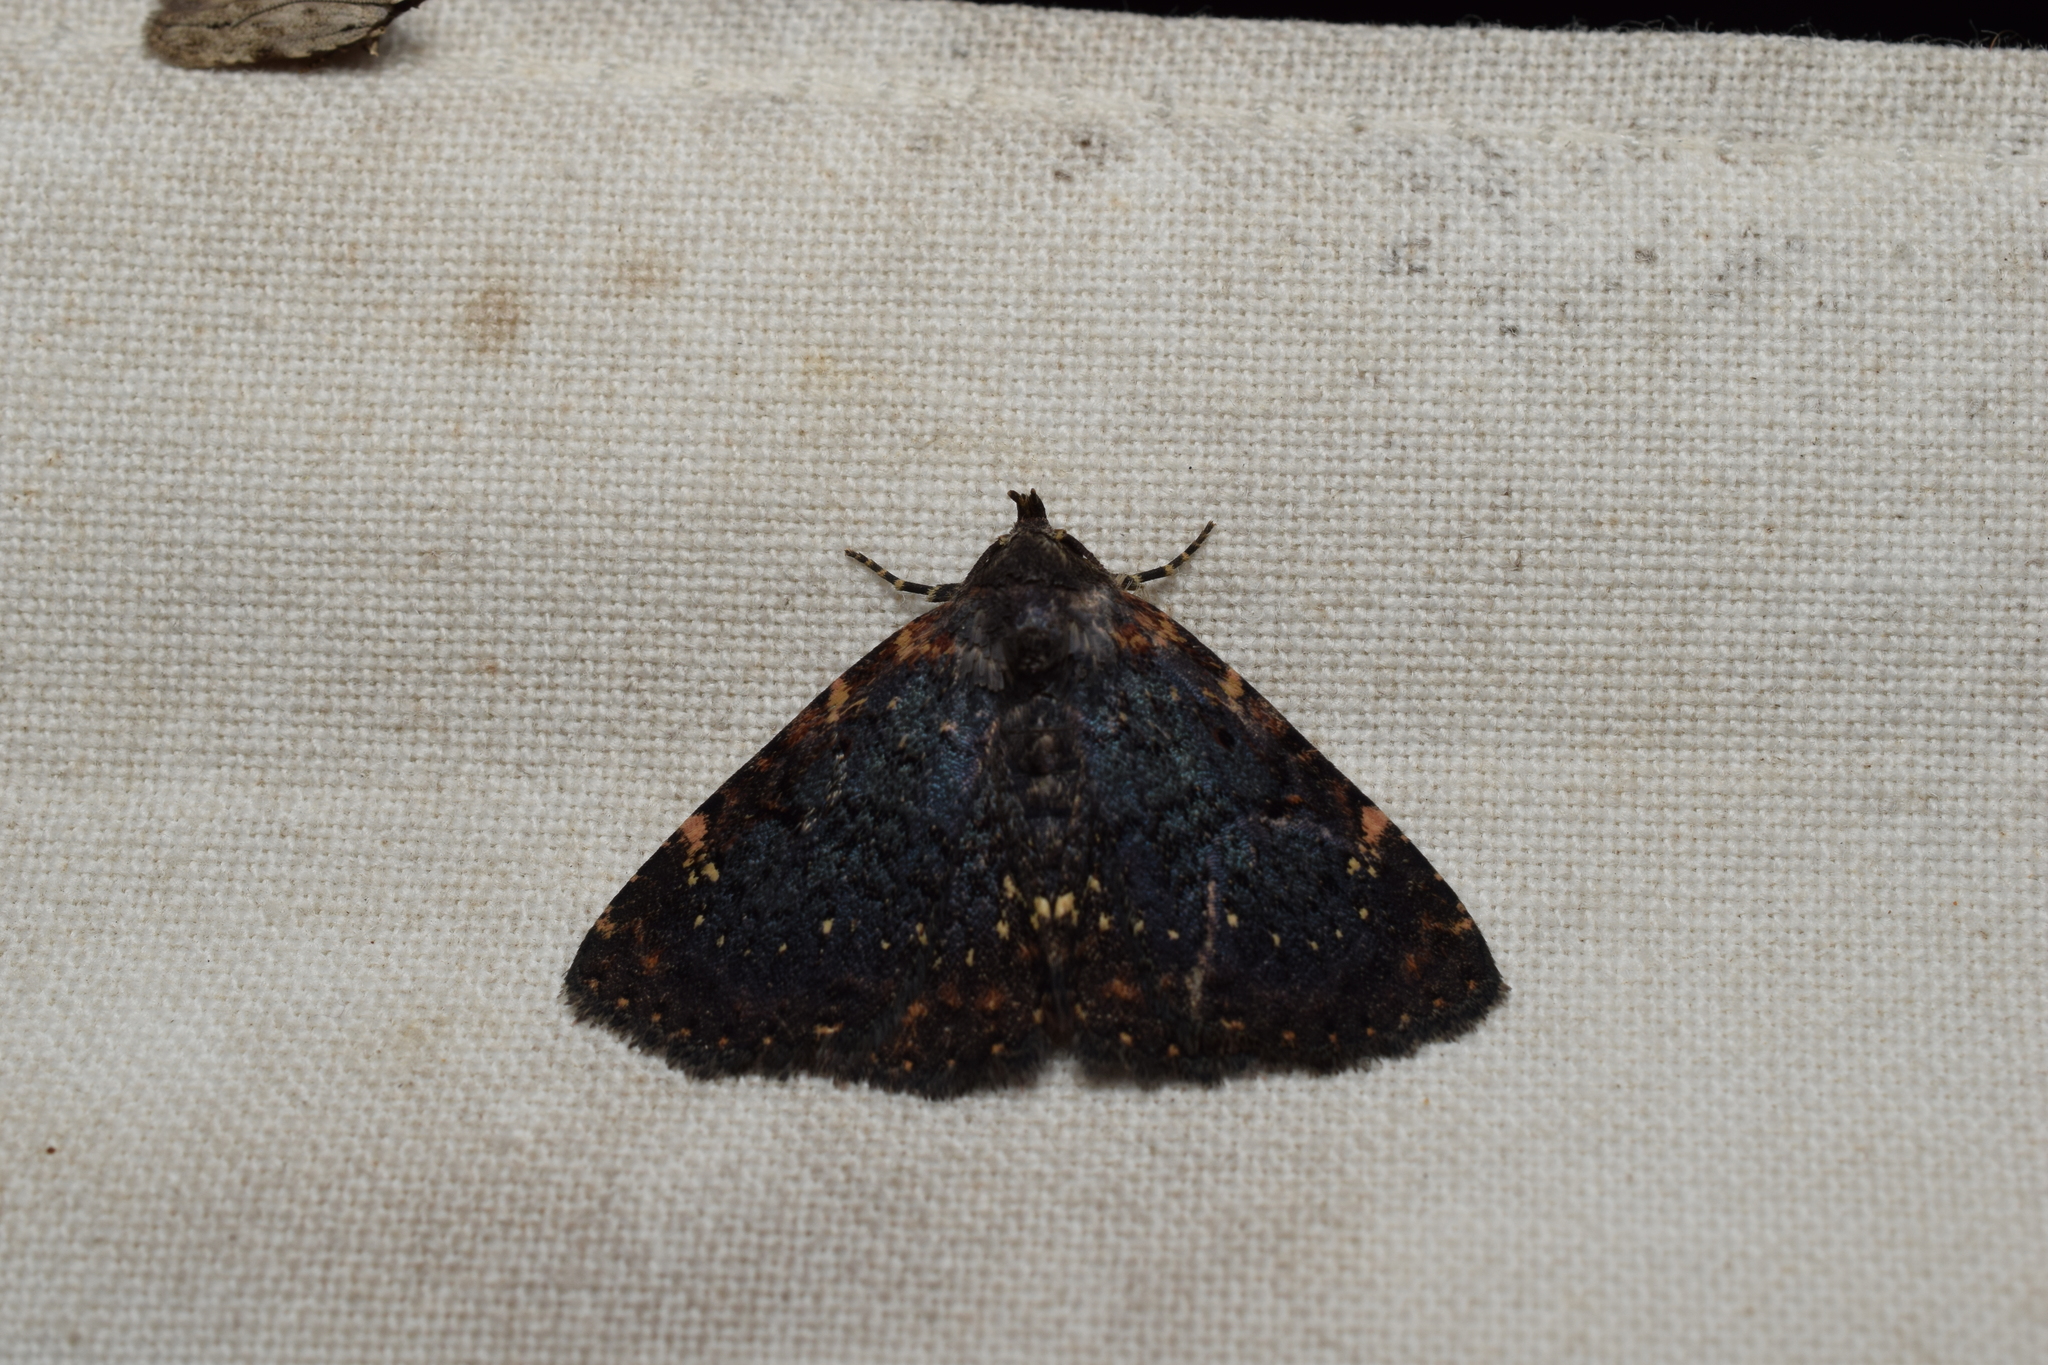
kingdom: Animalia
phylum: Arthropoda
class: Insecta
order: Lepidoptera
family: Erebidae
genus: Diomea
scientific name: Diomea cremata
